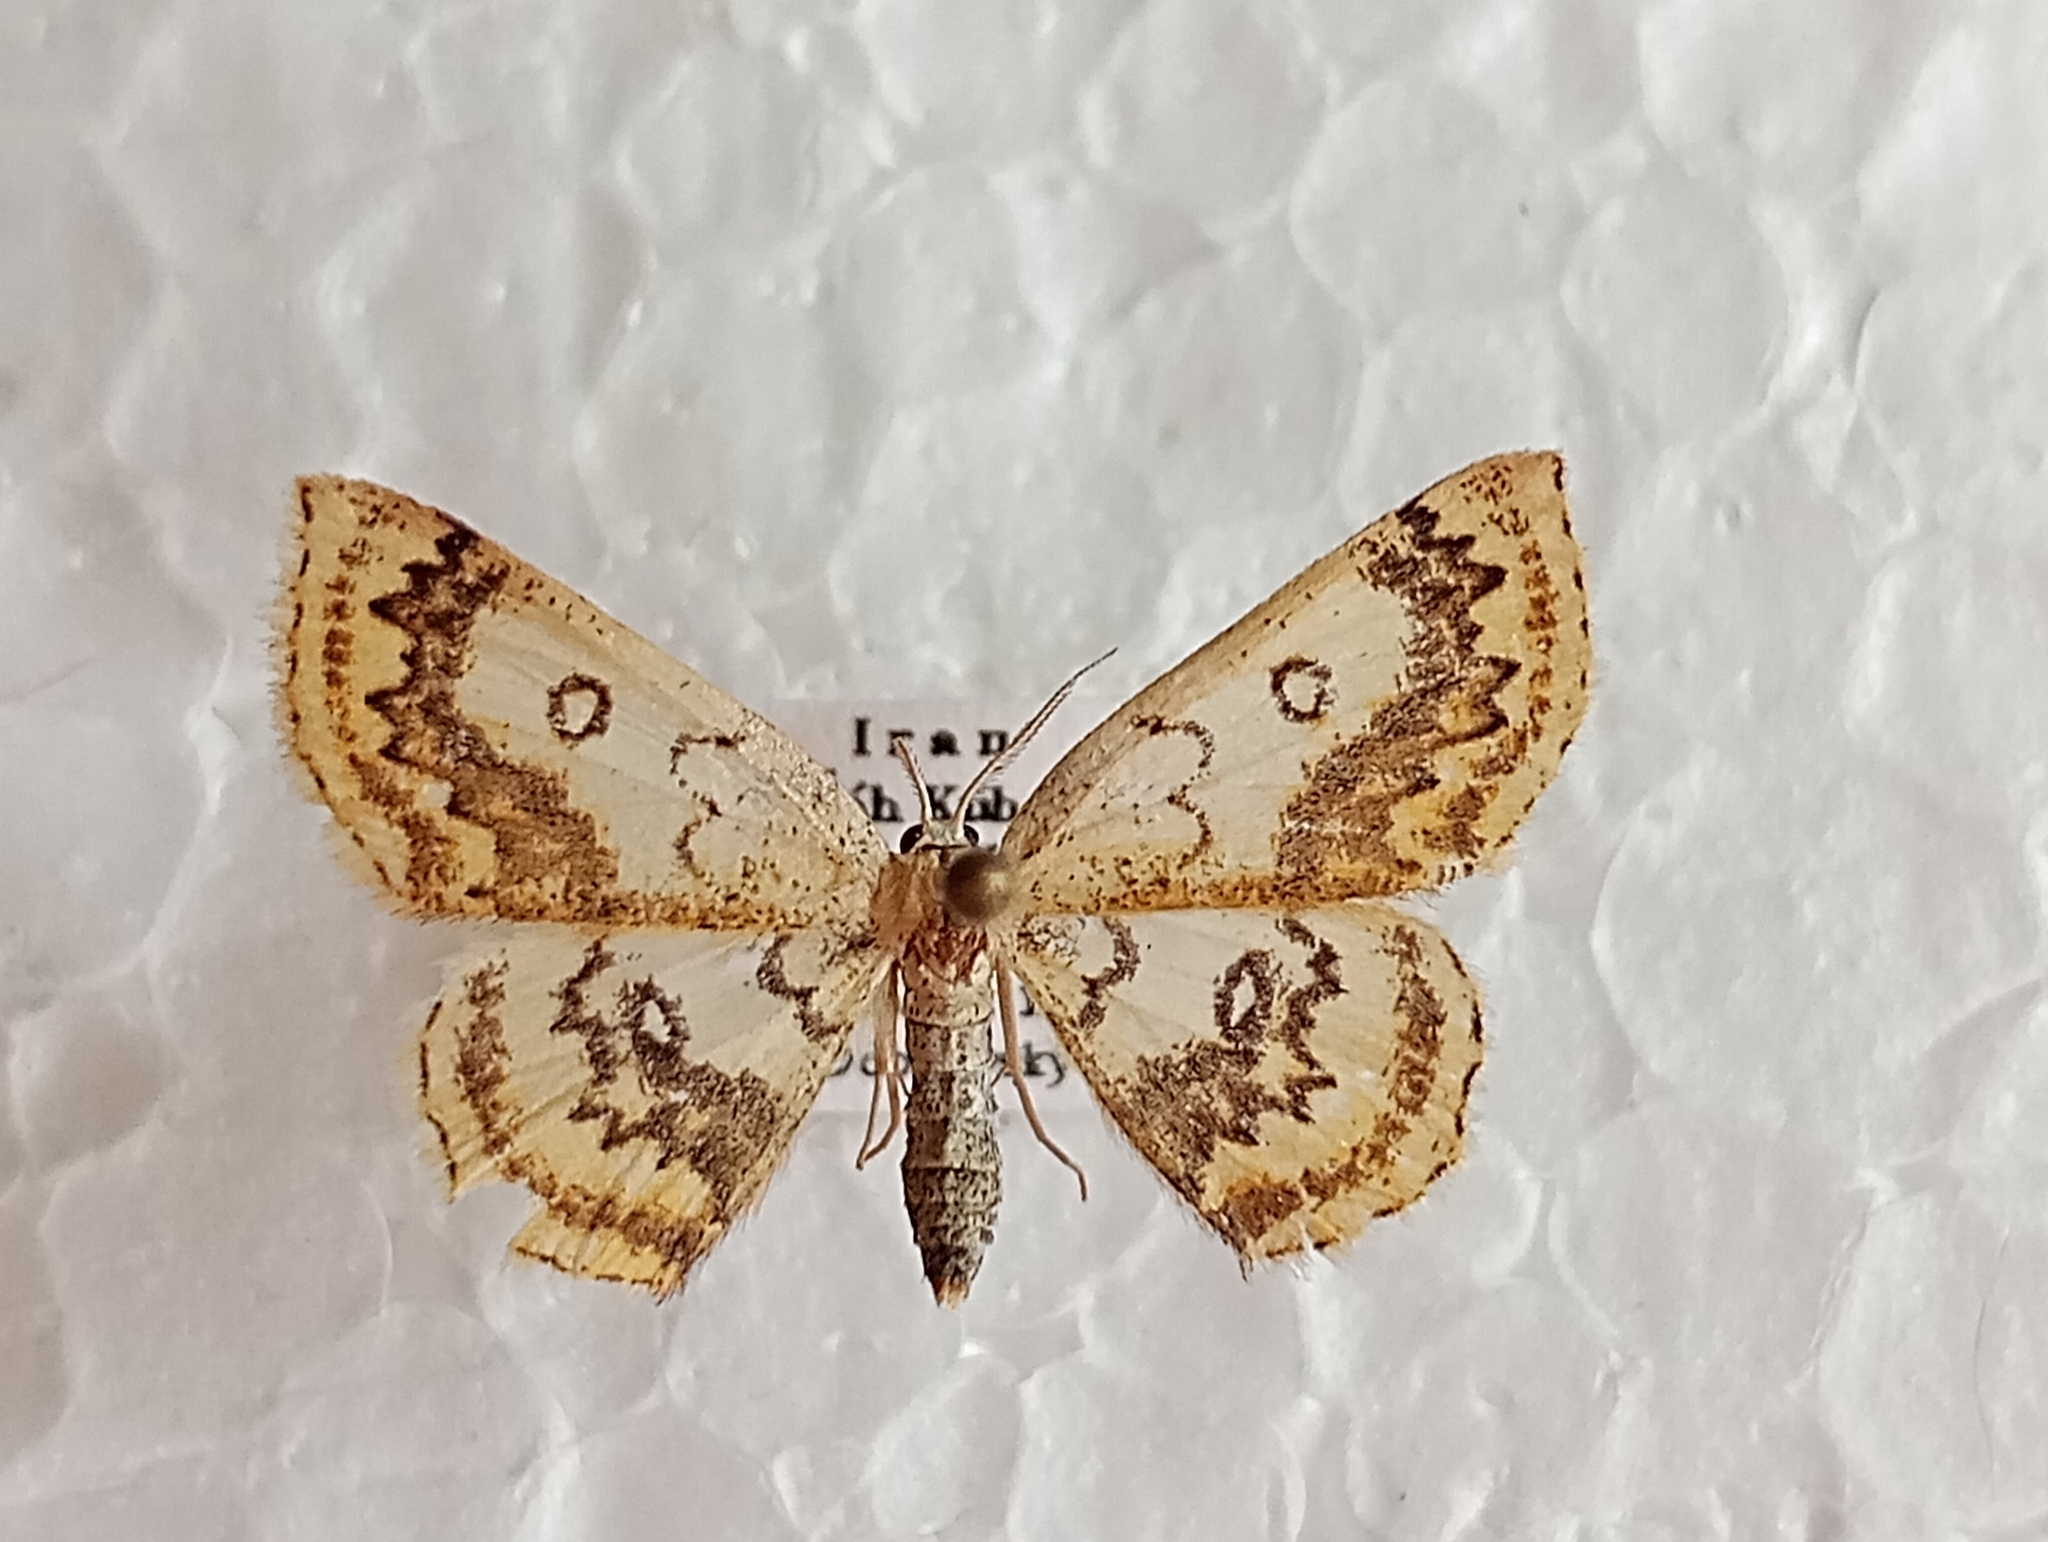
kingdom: Animalia
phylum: Arthropoda
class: Insecta
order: Lepidoptera
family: Geometridae
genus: Cyclophora
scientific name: Cyclophora annularia
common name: Mocha
